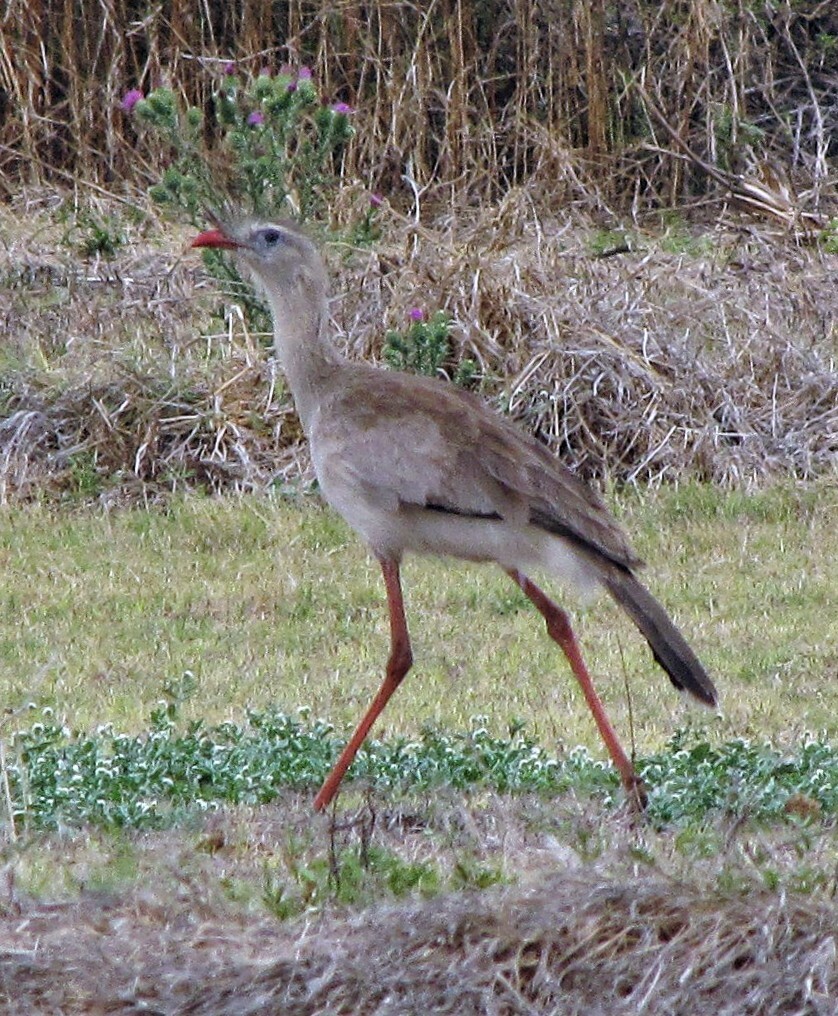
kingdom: Animalia
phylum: Chordata
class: Aves
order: Cariamiformes
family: Cariamidae
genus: Cariama
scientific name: Cariama cristata
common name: Red-legged seriema
